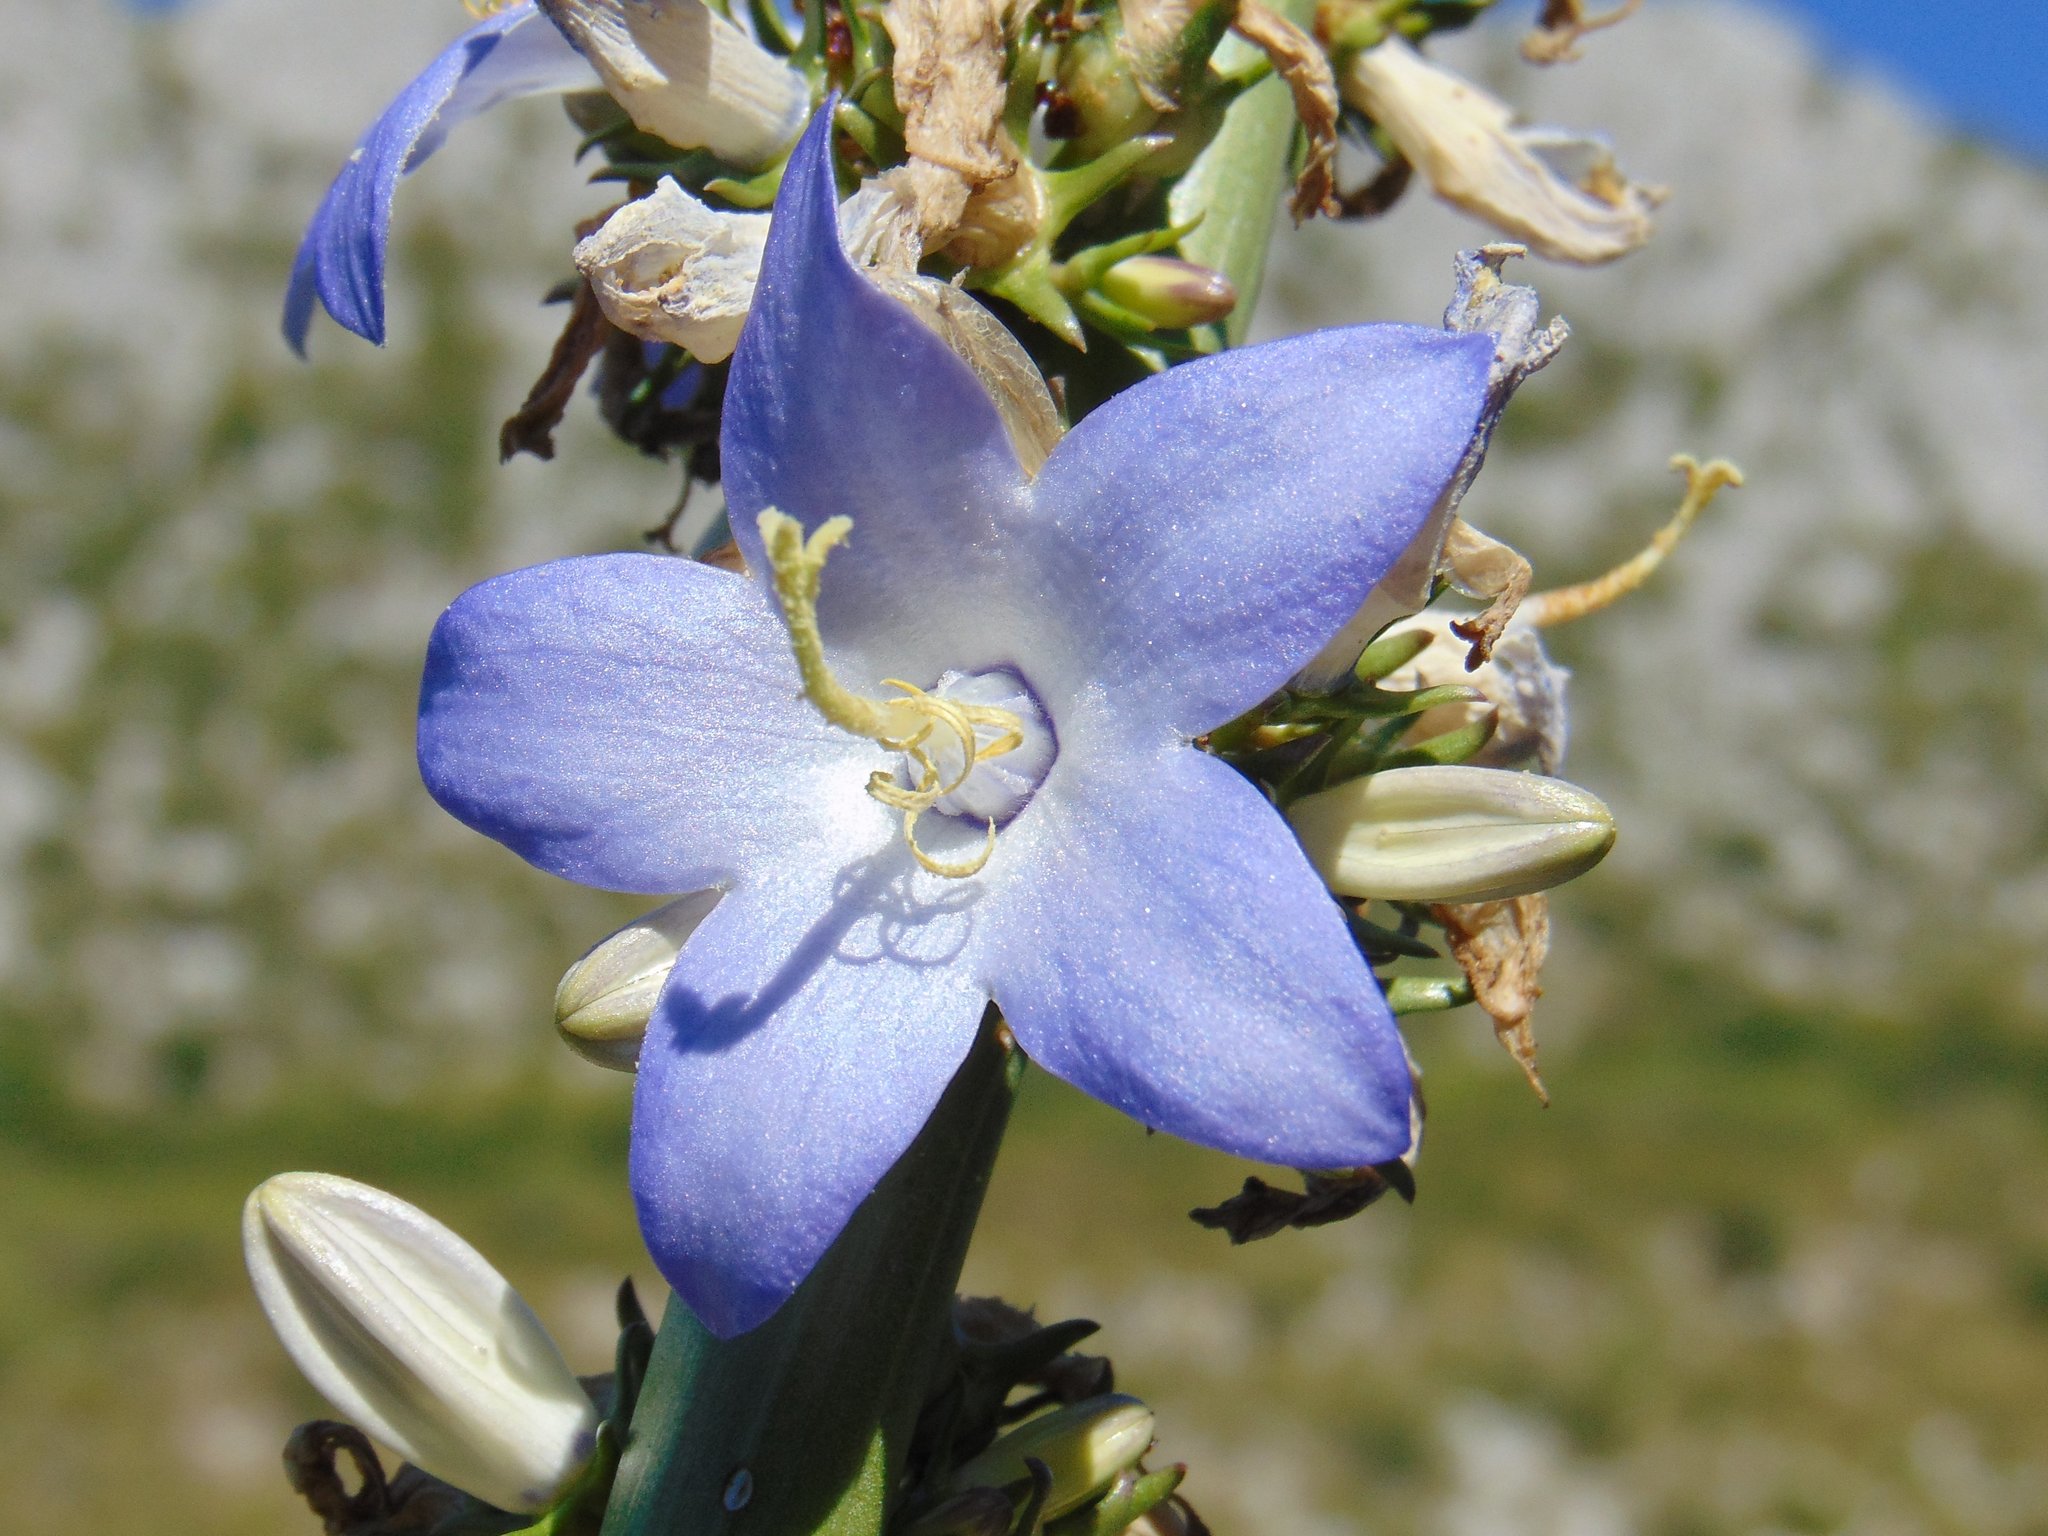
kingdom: Plantae
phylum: Tracheophyta
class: Magnoliopsida
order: Asterales
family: Campanulaceae
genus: Campanula
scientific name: Campanula pyramidalis
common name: Chimney bellflower
